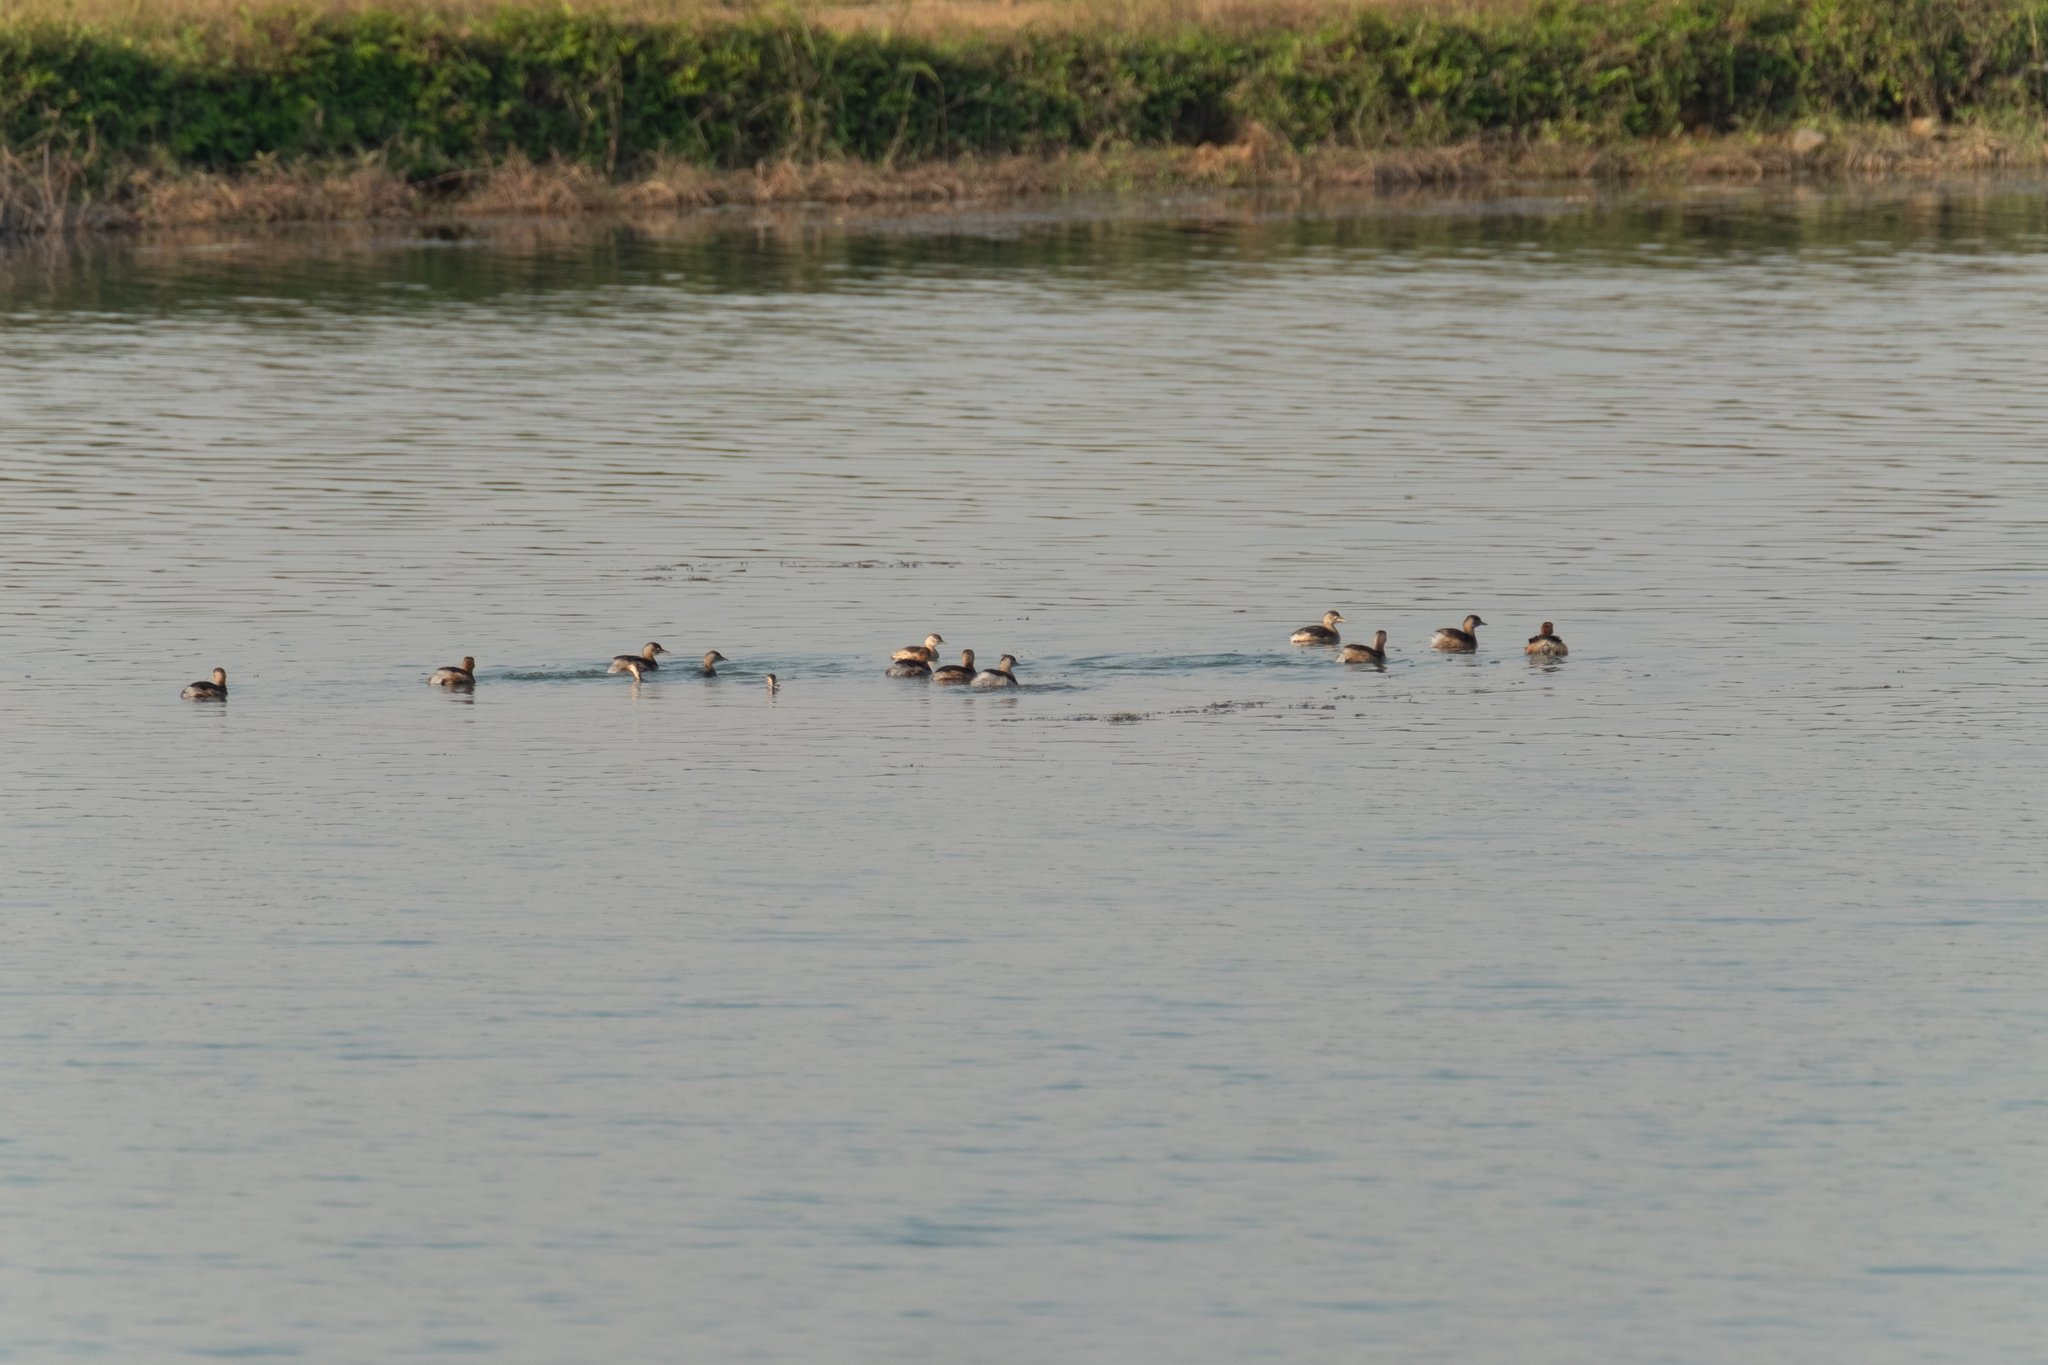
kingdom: Animalia
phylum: Chordata
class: Aves
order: Podicipediformes
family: Podicipedidae
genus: Tachybaptus
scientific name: Tachybaptus ruficollis
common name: Little grebe
